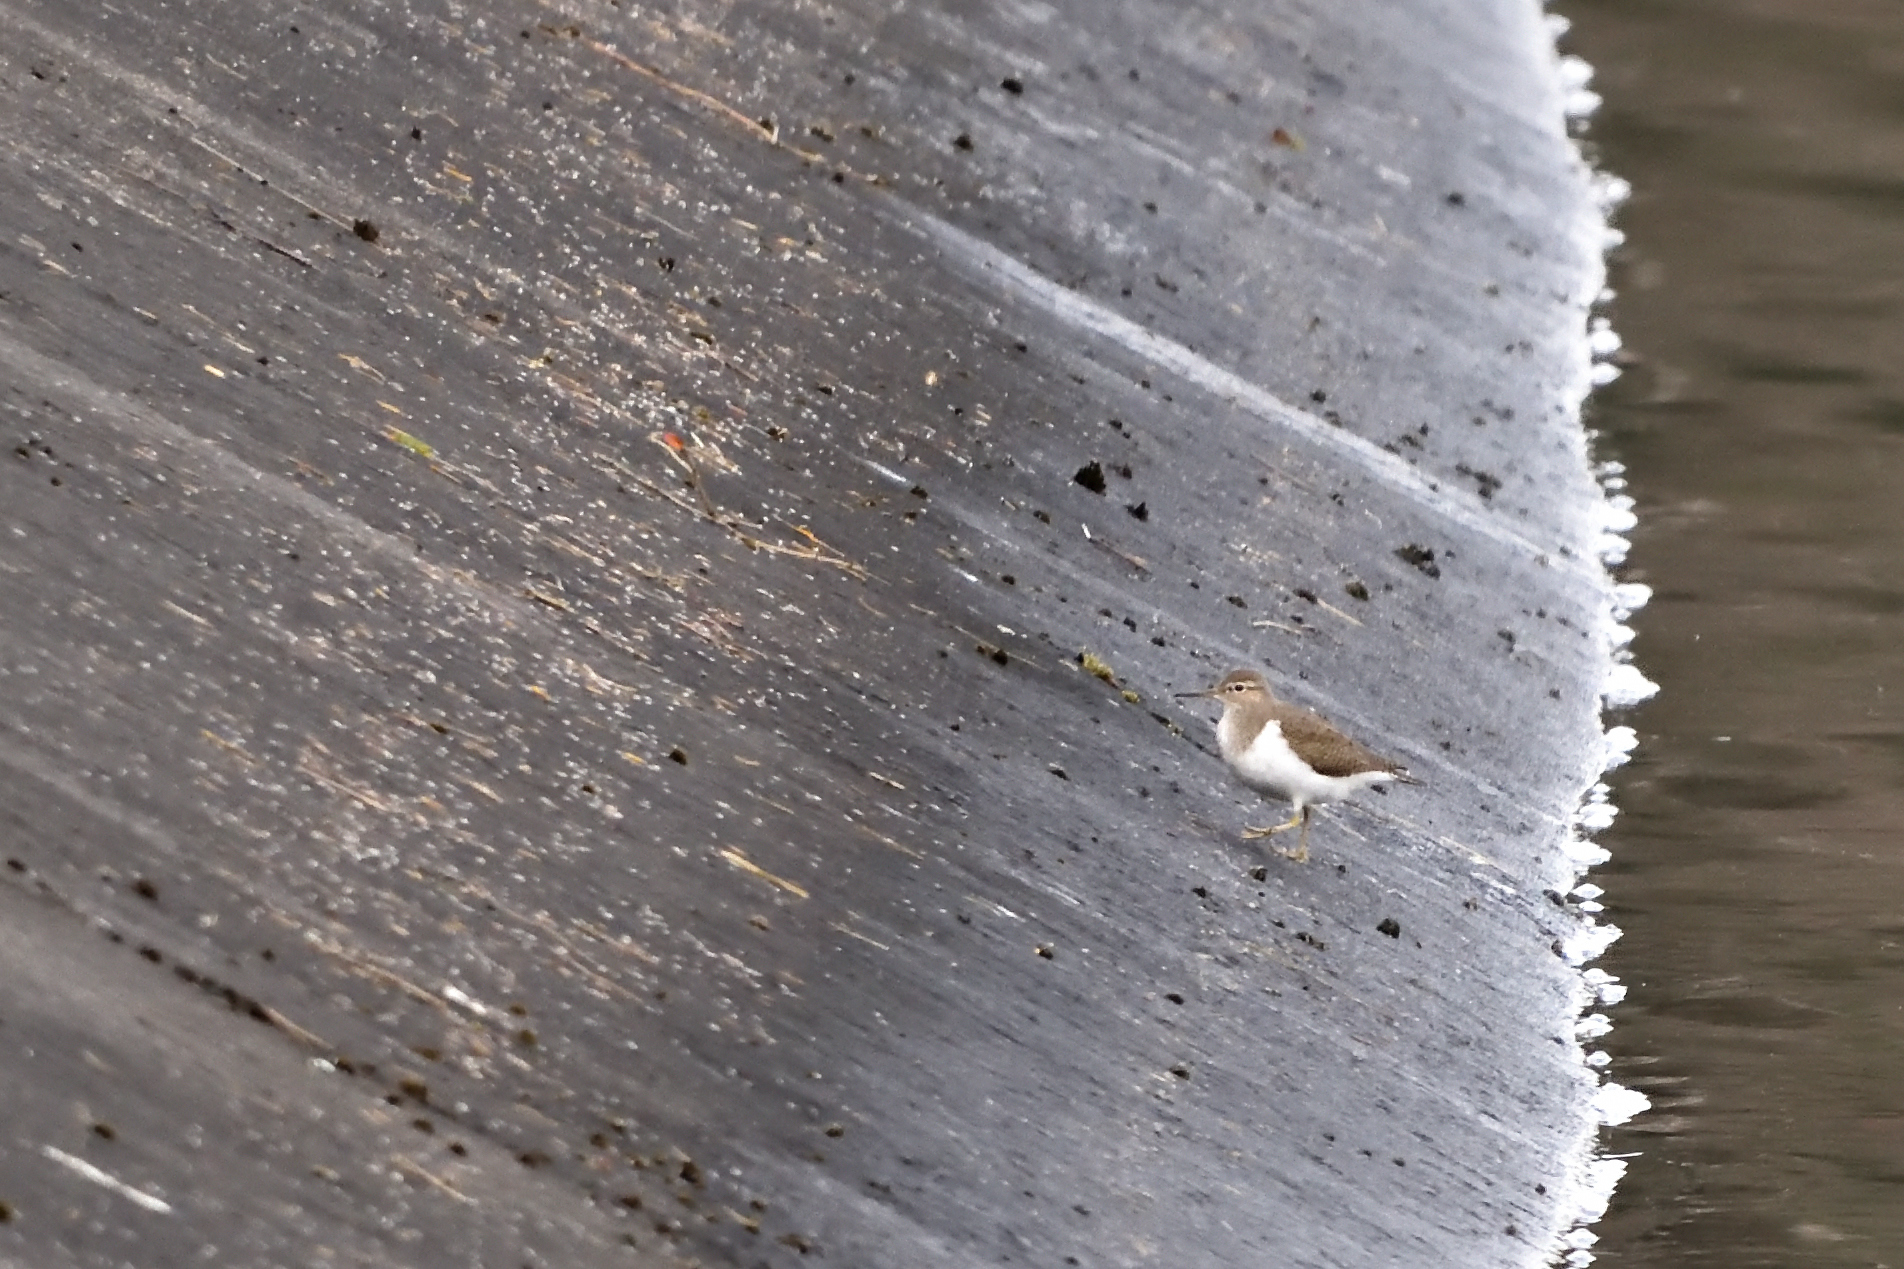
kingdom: Animalia
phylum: Chordata
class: Aves
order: Charadriiformes
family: Scolopacidae
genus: Actitis
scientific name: Actitis hypoleucos
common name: Common sandpiper
